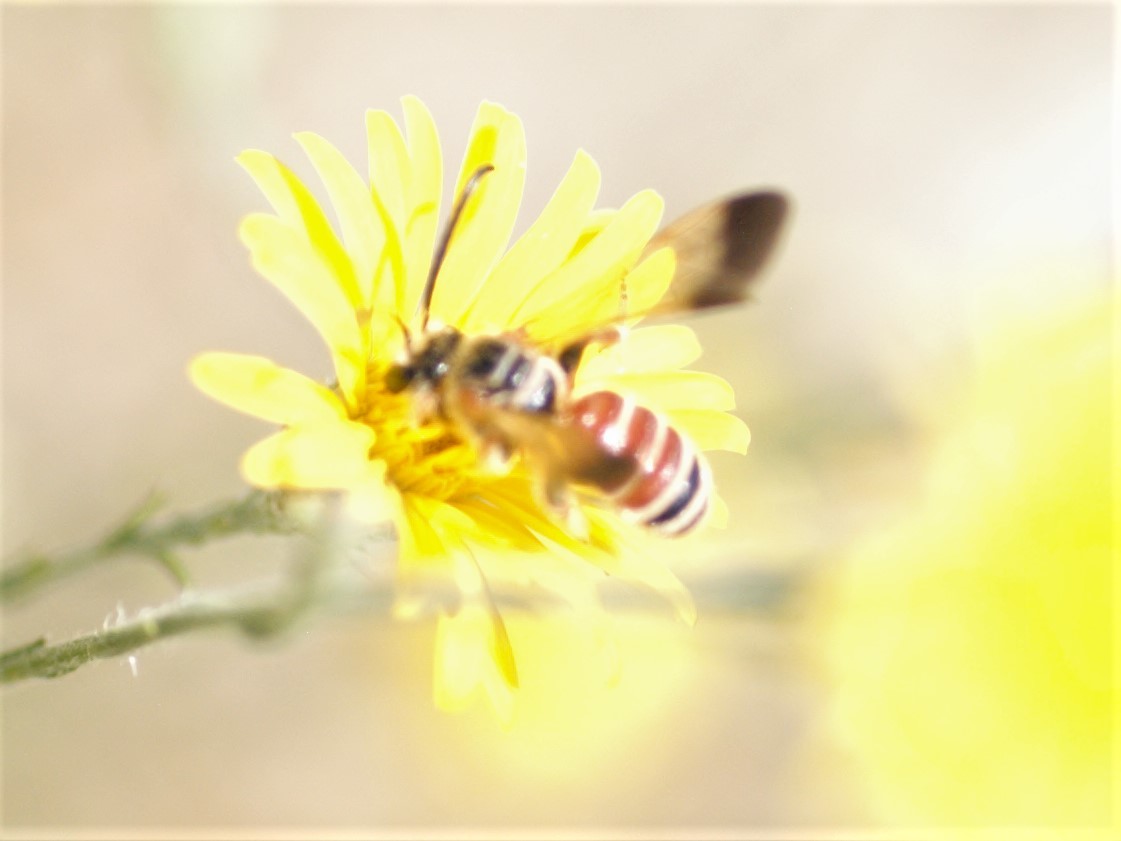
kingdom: Animalia
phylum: Arthropoda
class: Insecta
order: Hymenoptera
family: Halictidae
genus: Dieunomia
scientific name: Dieunomia nevadensis
